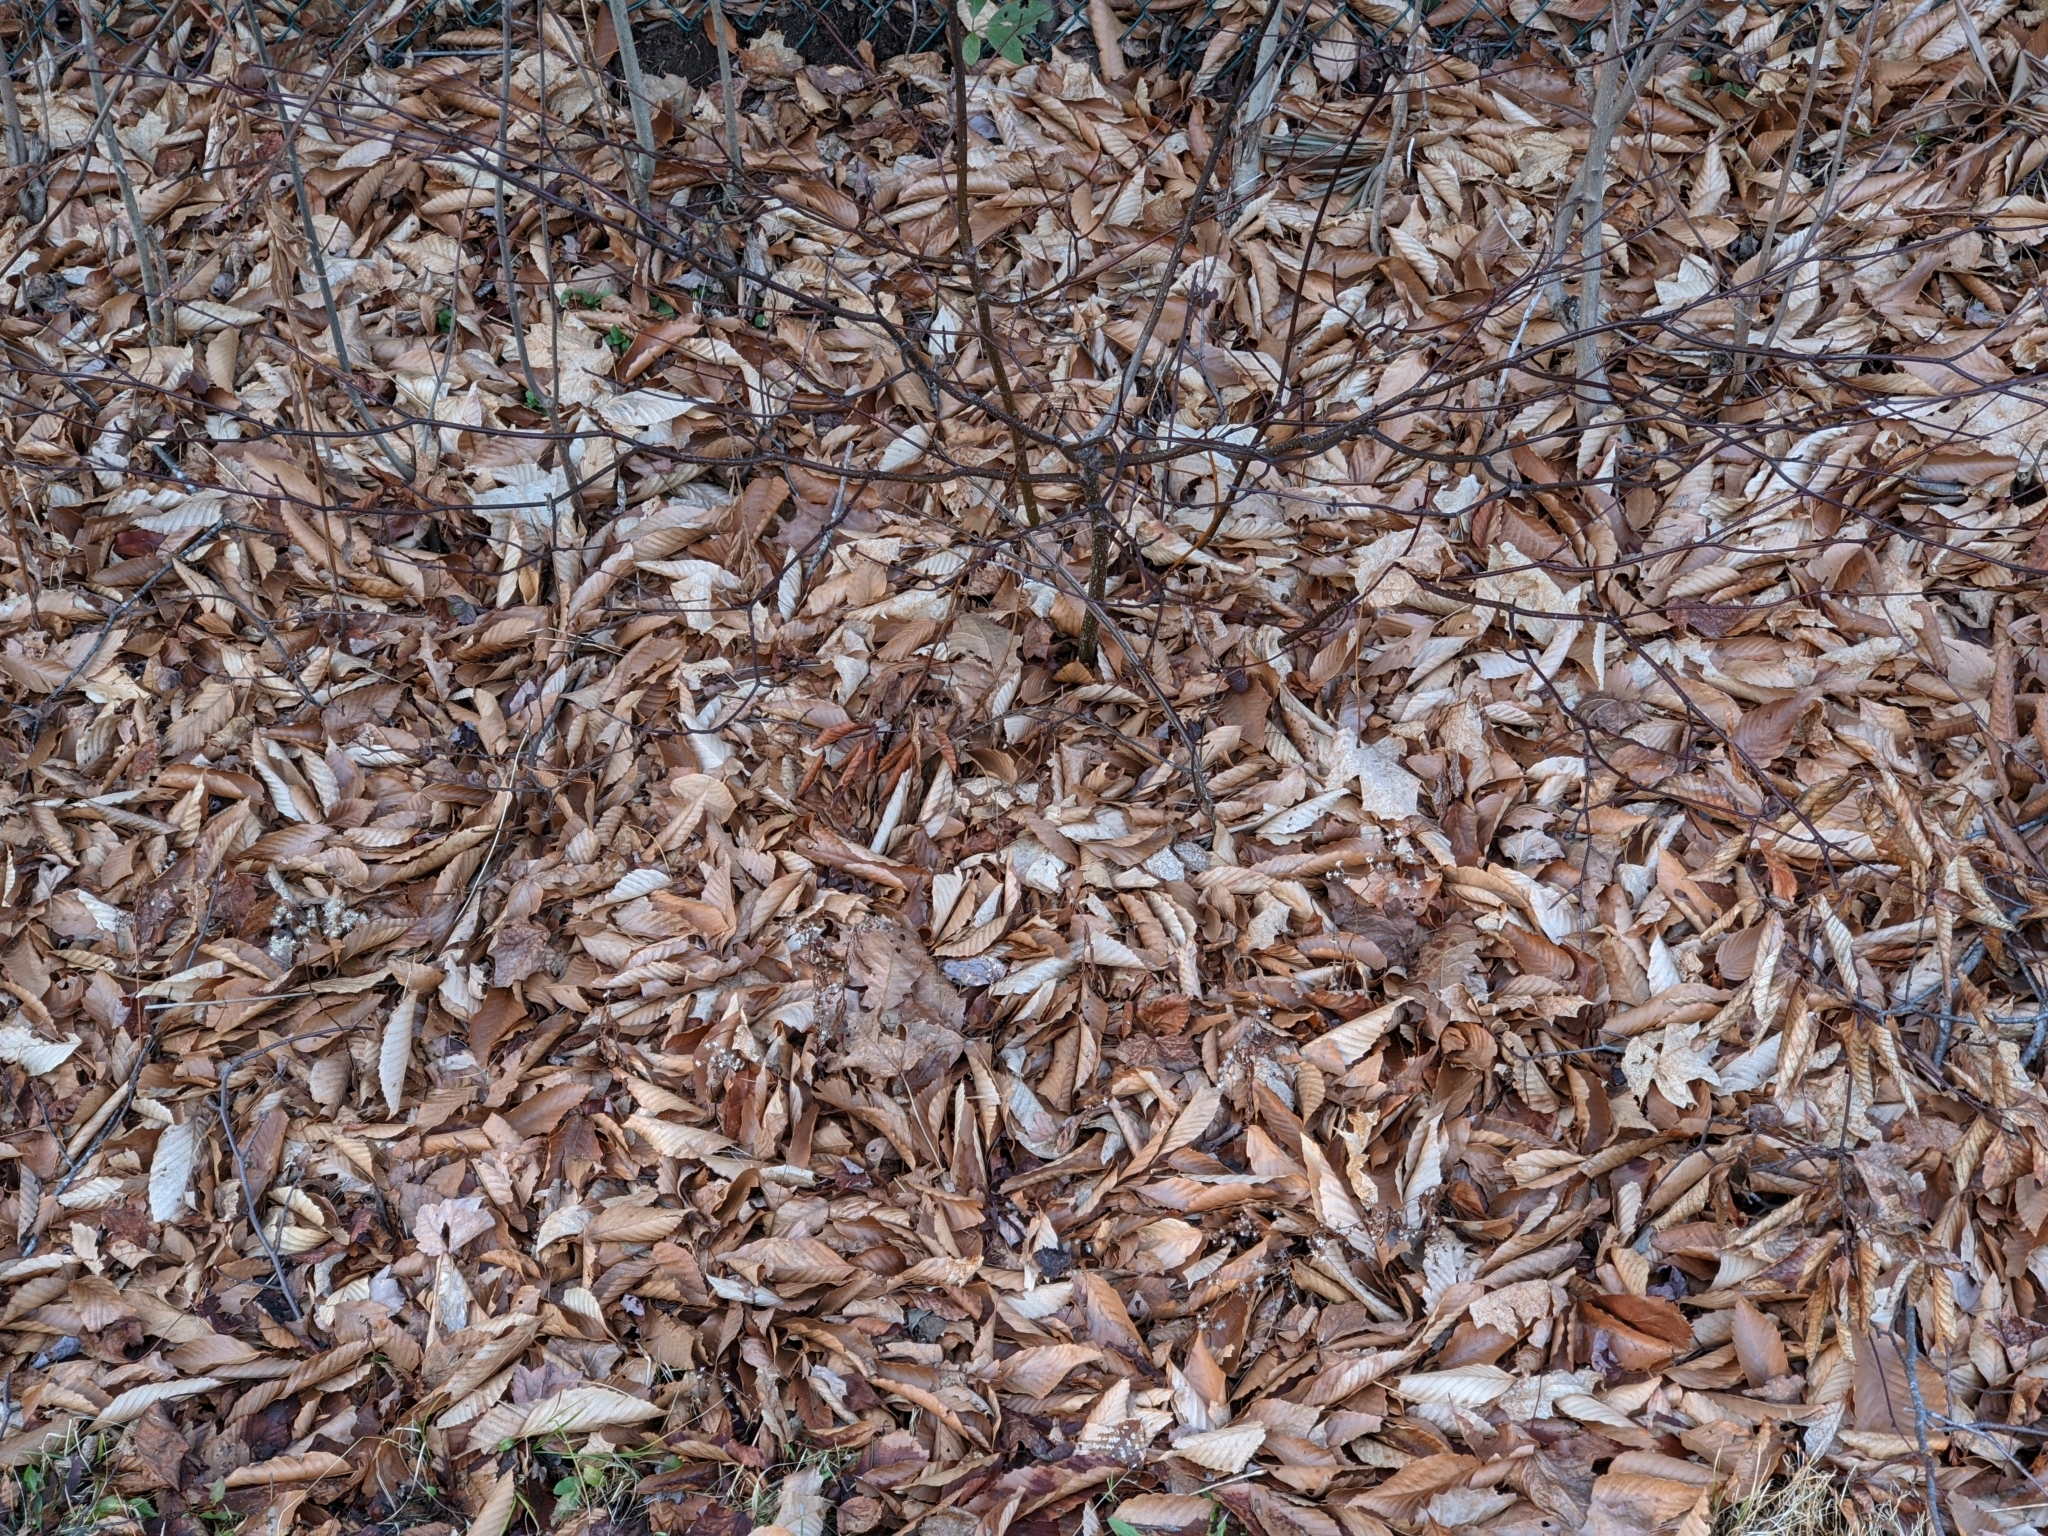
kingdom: Plantae
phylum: Tracheophyta
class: Magnoliopsida
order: Fagales
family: Fagaceae
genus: Fagus
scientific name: Fagus grandifolia
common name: American beech
